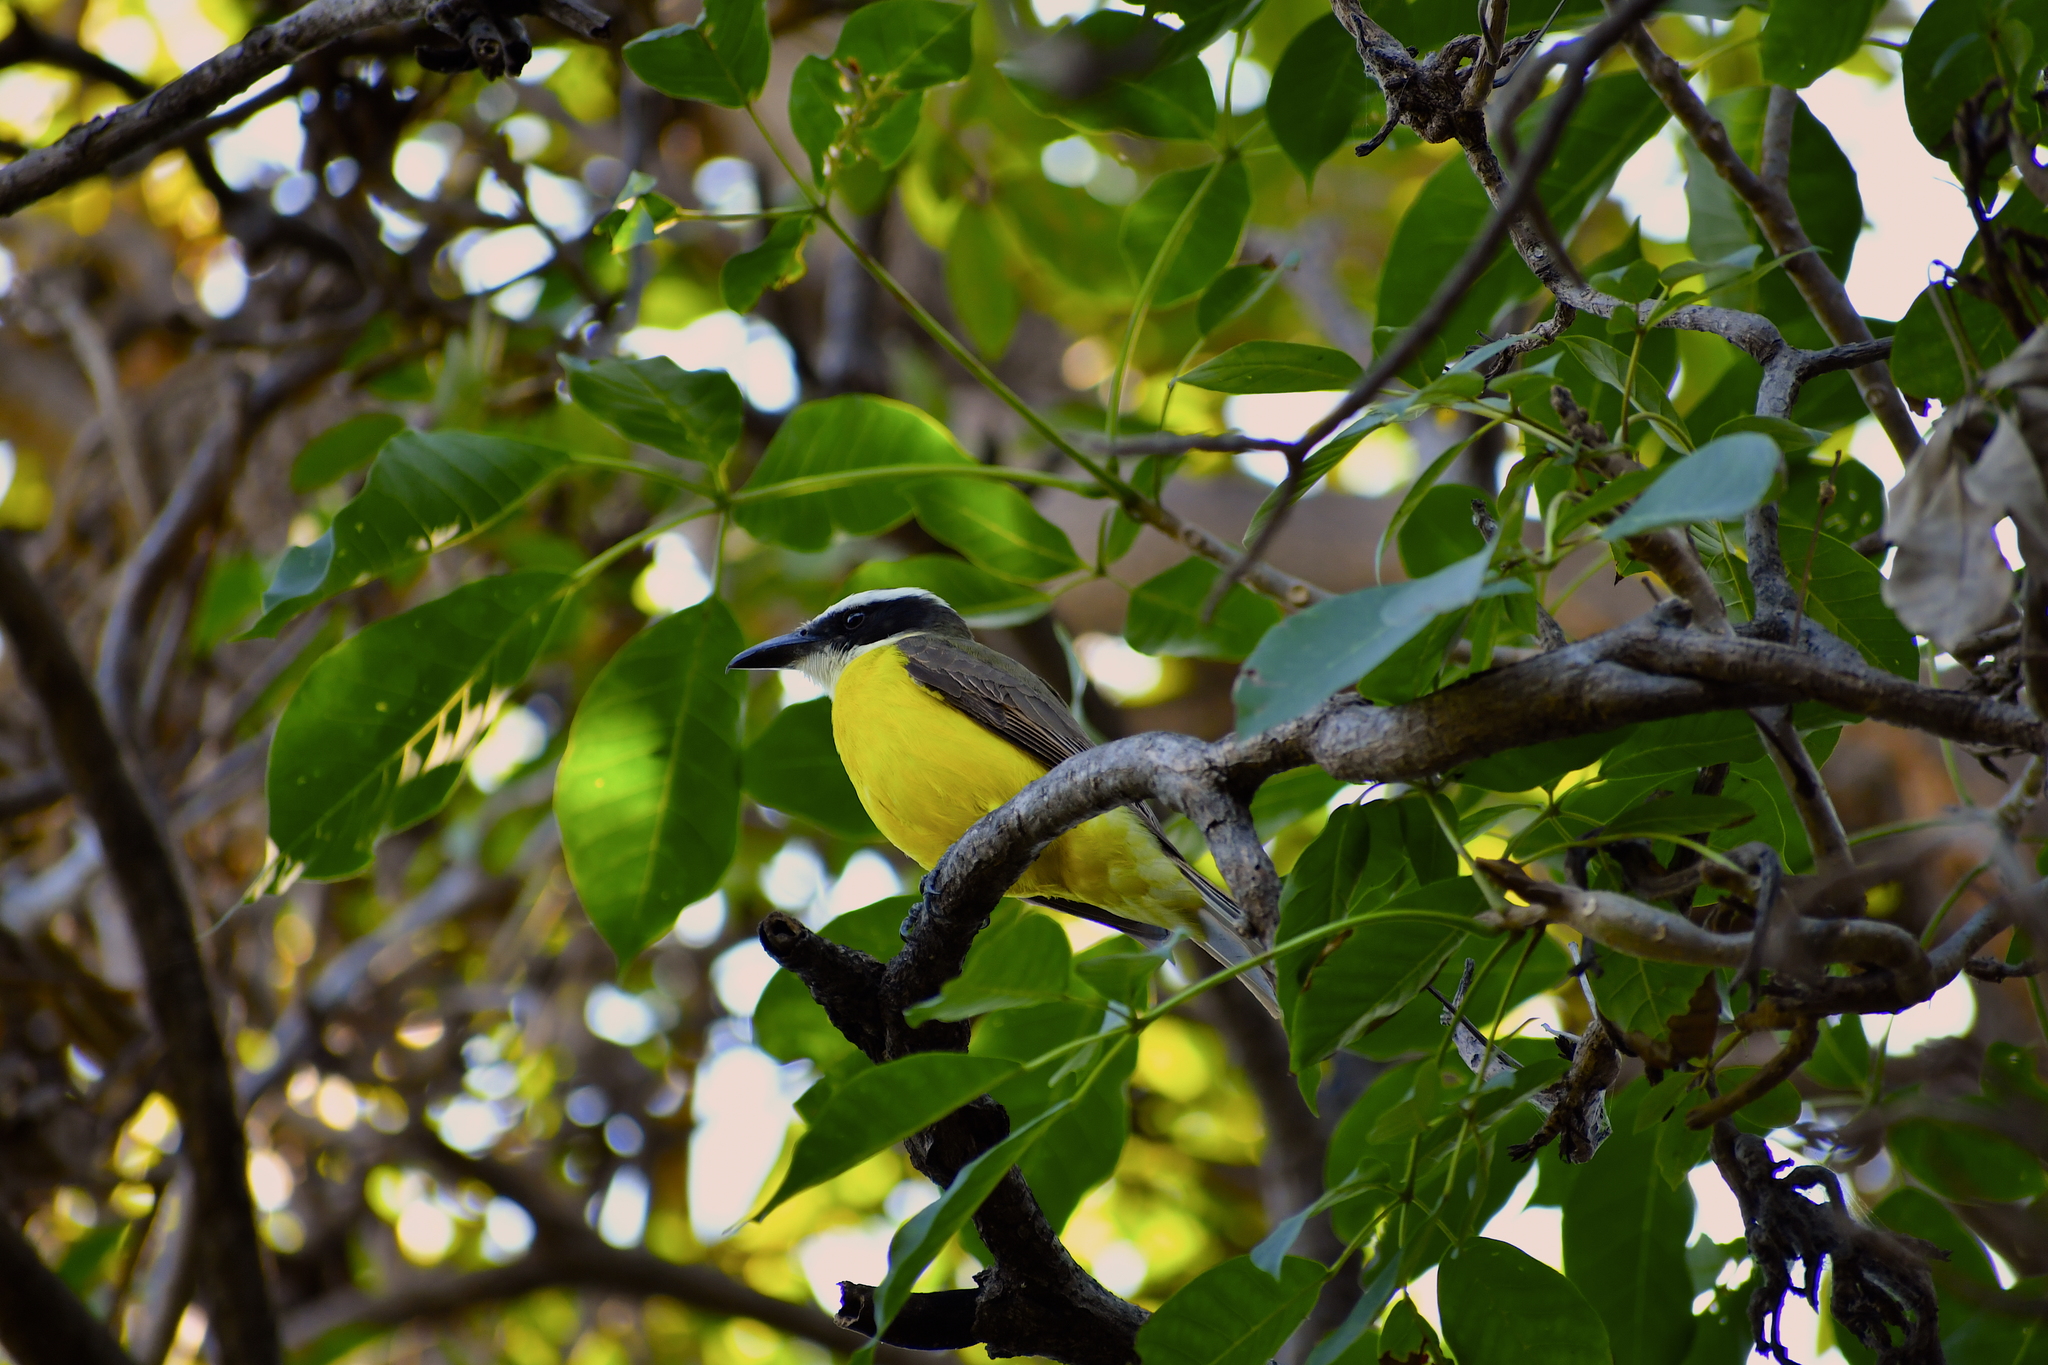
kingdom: Animalia
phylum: Chordata
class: Aves
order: Passeriformes
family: Tyrannidae
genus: Megarynchus
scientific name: Megarynchus pitangua
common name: Boat-billed flycatcher
